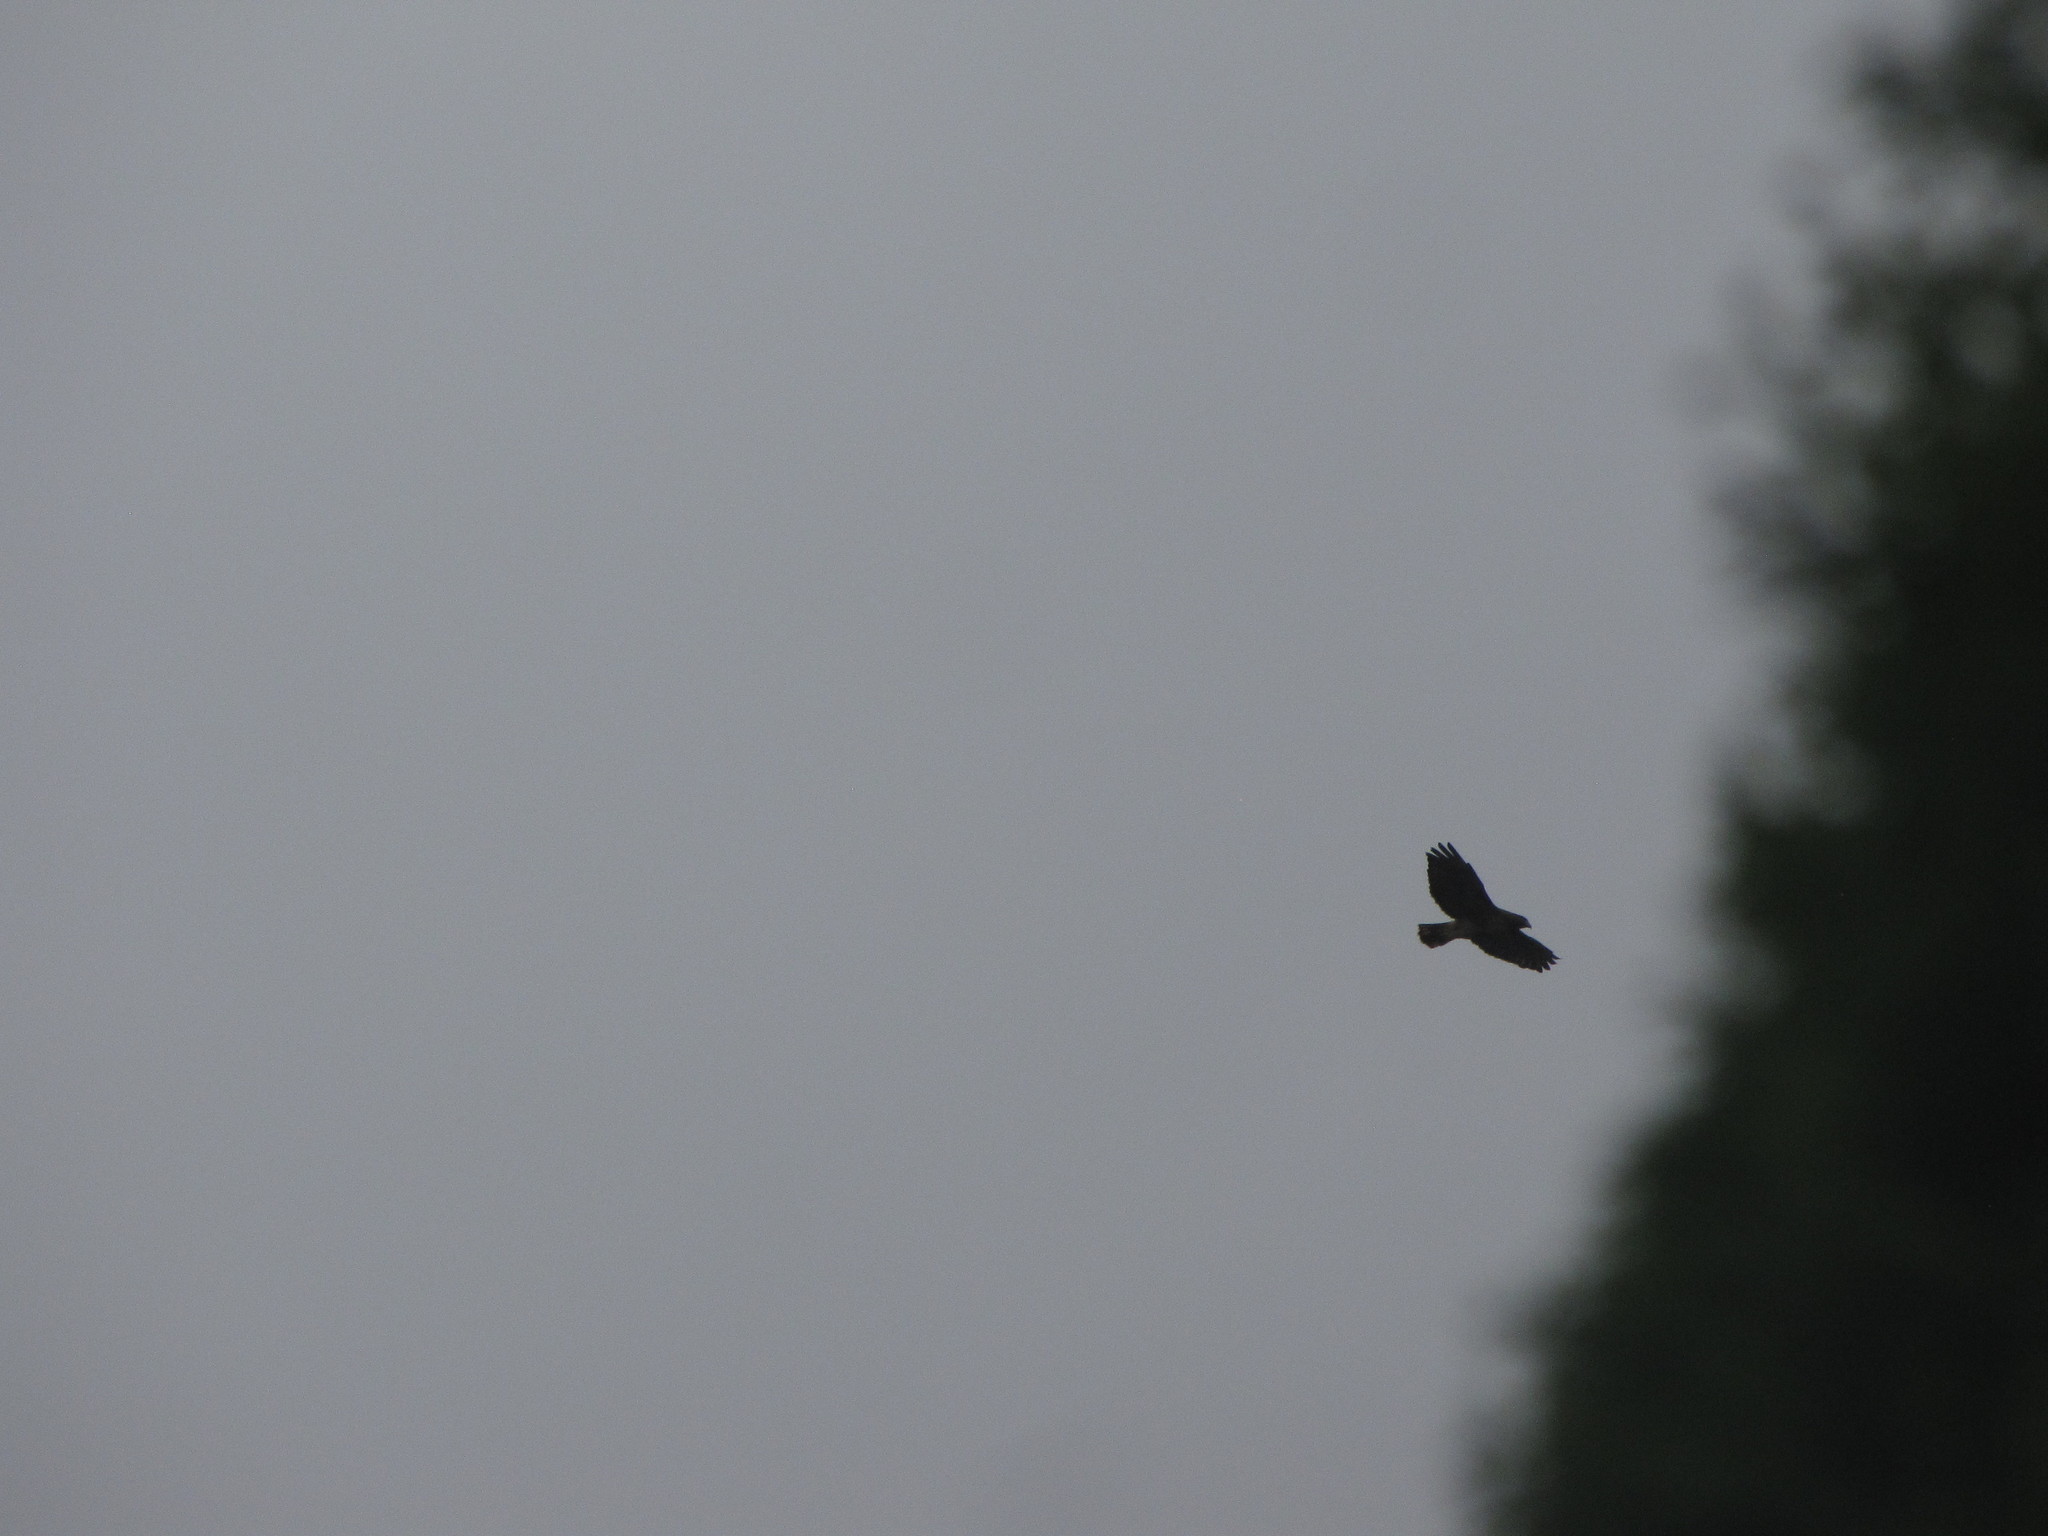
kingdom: Animalia
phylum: Chordata
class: Aves
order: Accipitriformes
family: Accipitridae
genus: Buteo
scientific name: Buteo jamaicensis
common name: Red-tailed hawk
